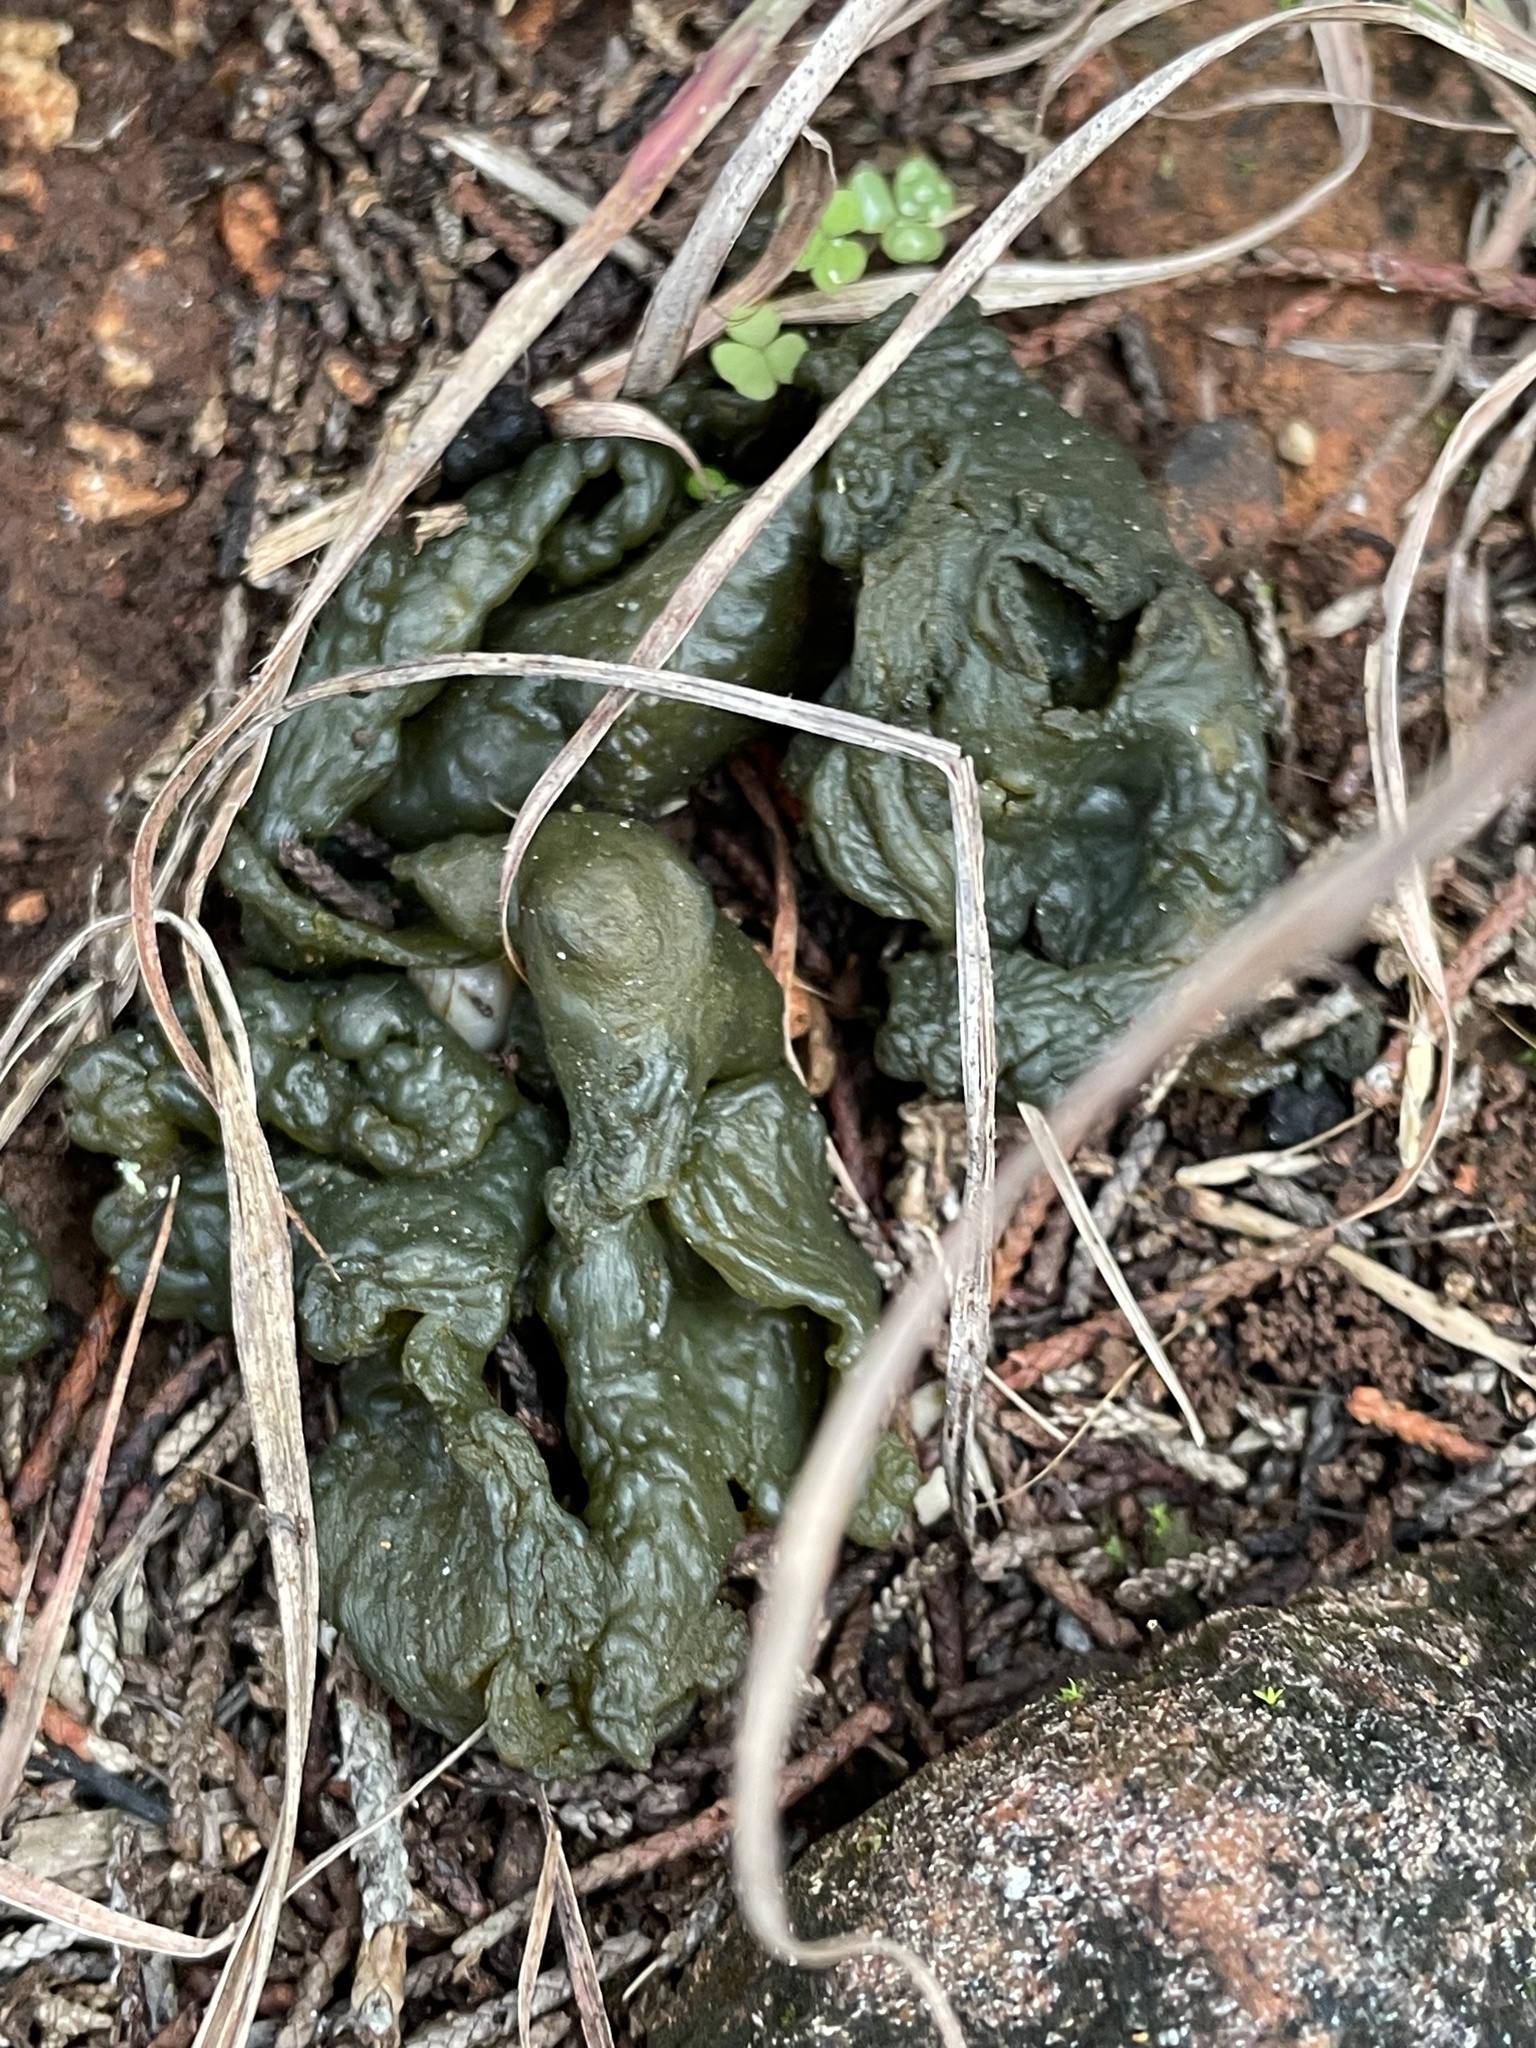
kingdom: Bacteria
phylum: Cyanobacteria
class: Cyanobacteriia
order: Cyanobacteriales
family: Nostocaceae
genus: Nostoc
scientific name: Nostoc commune
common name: Star jelly
